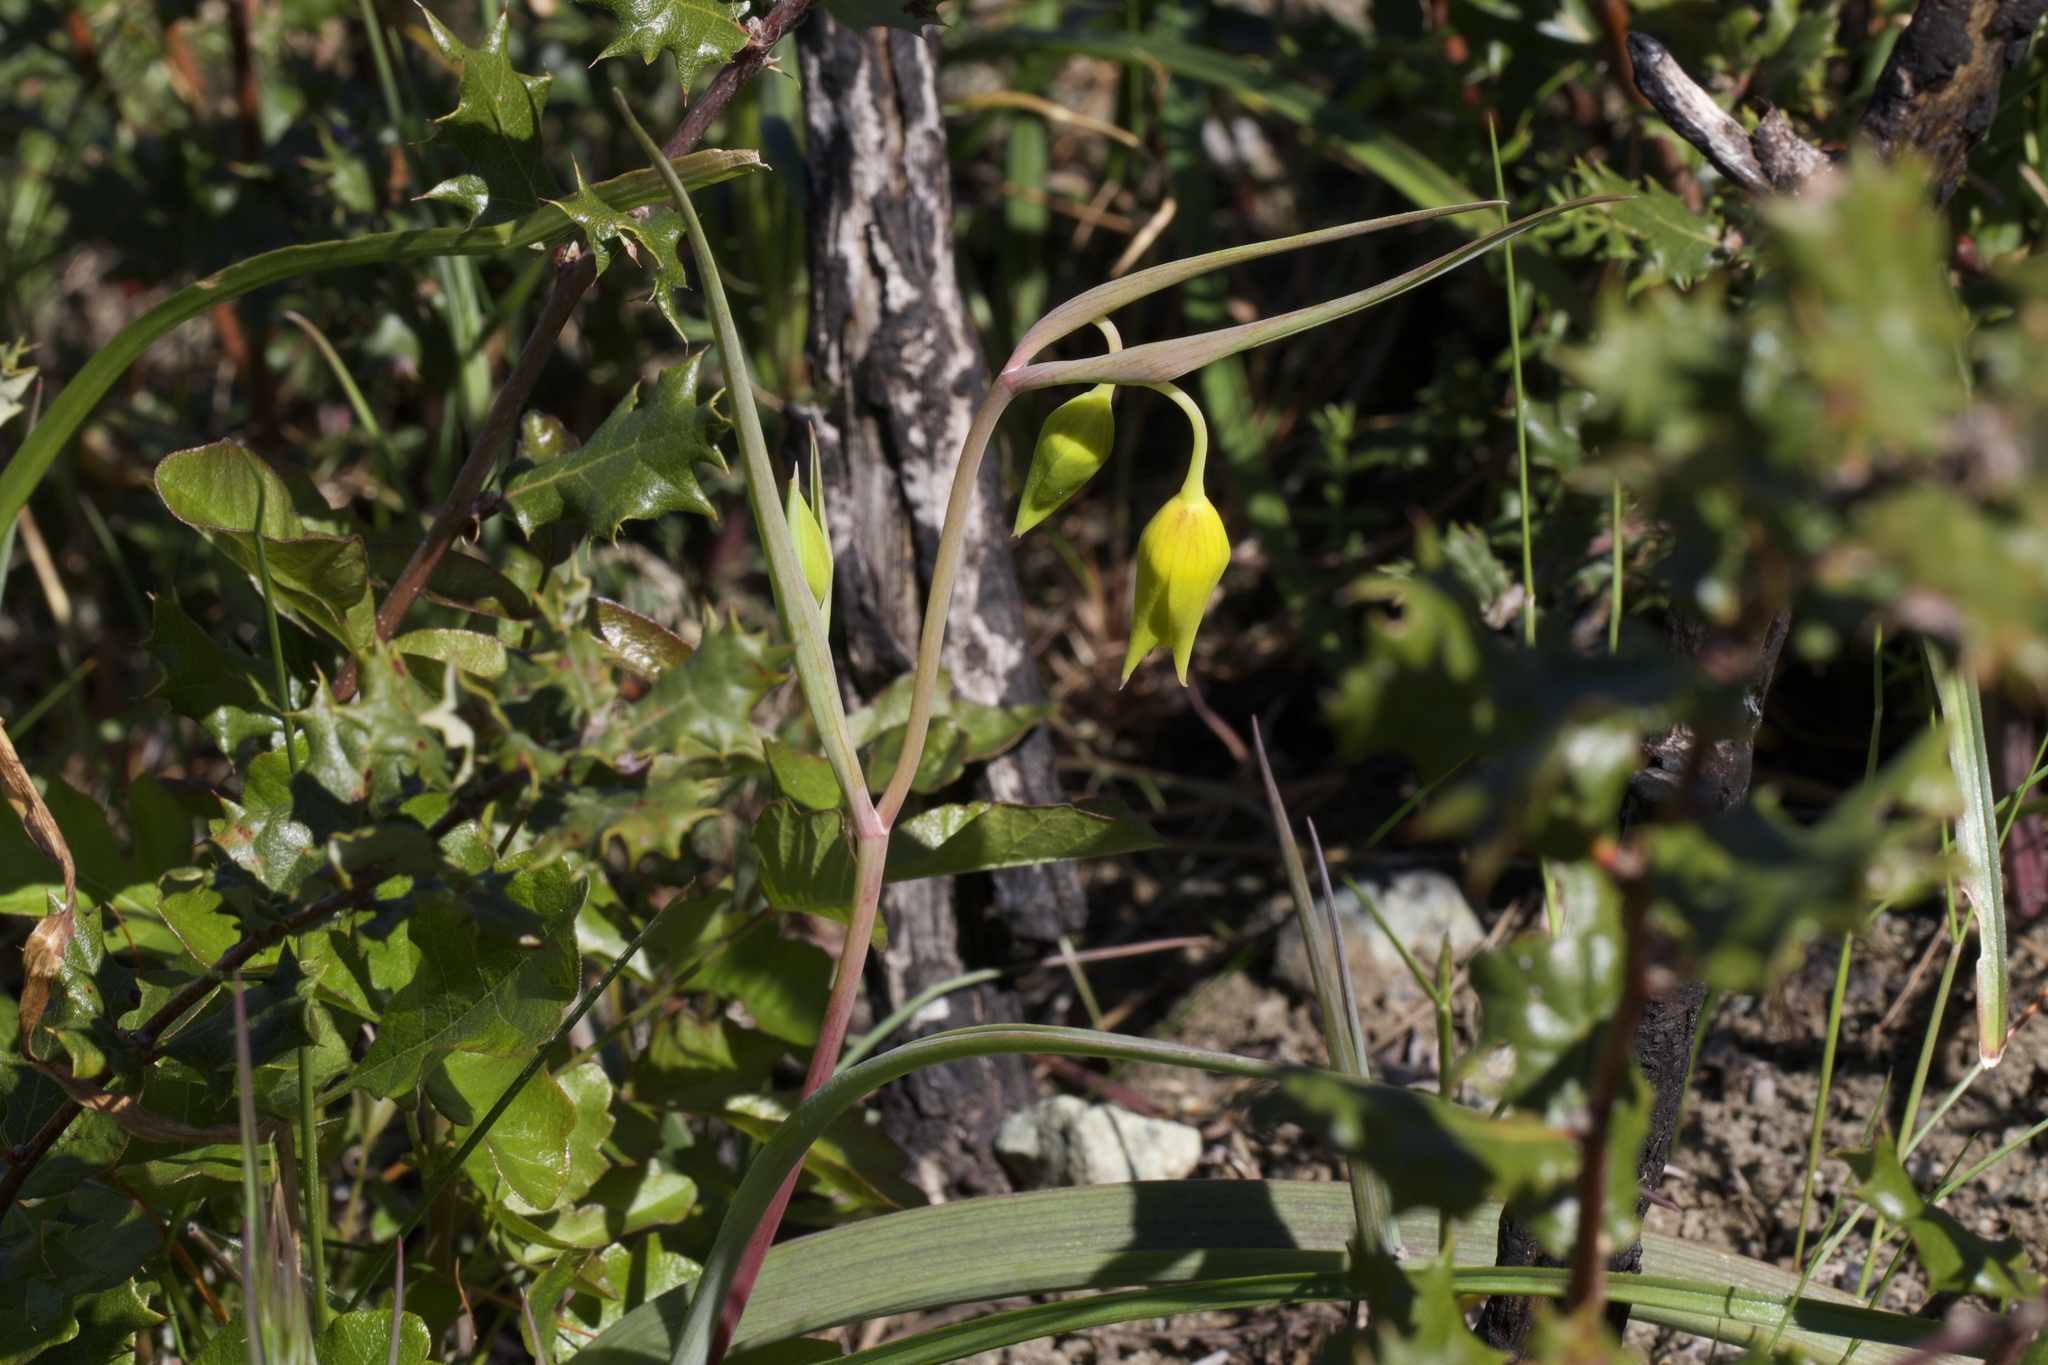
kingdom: Plantae
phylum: Tracheophyta
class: Liliopsida
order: Liliales
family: Liliaceae
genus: Calochortus
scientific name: Calochortus amabilis
